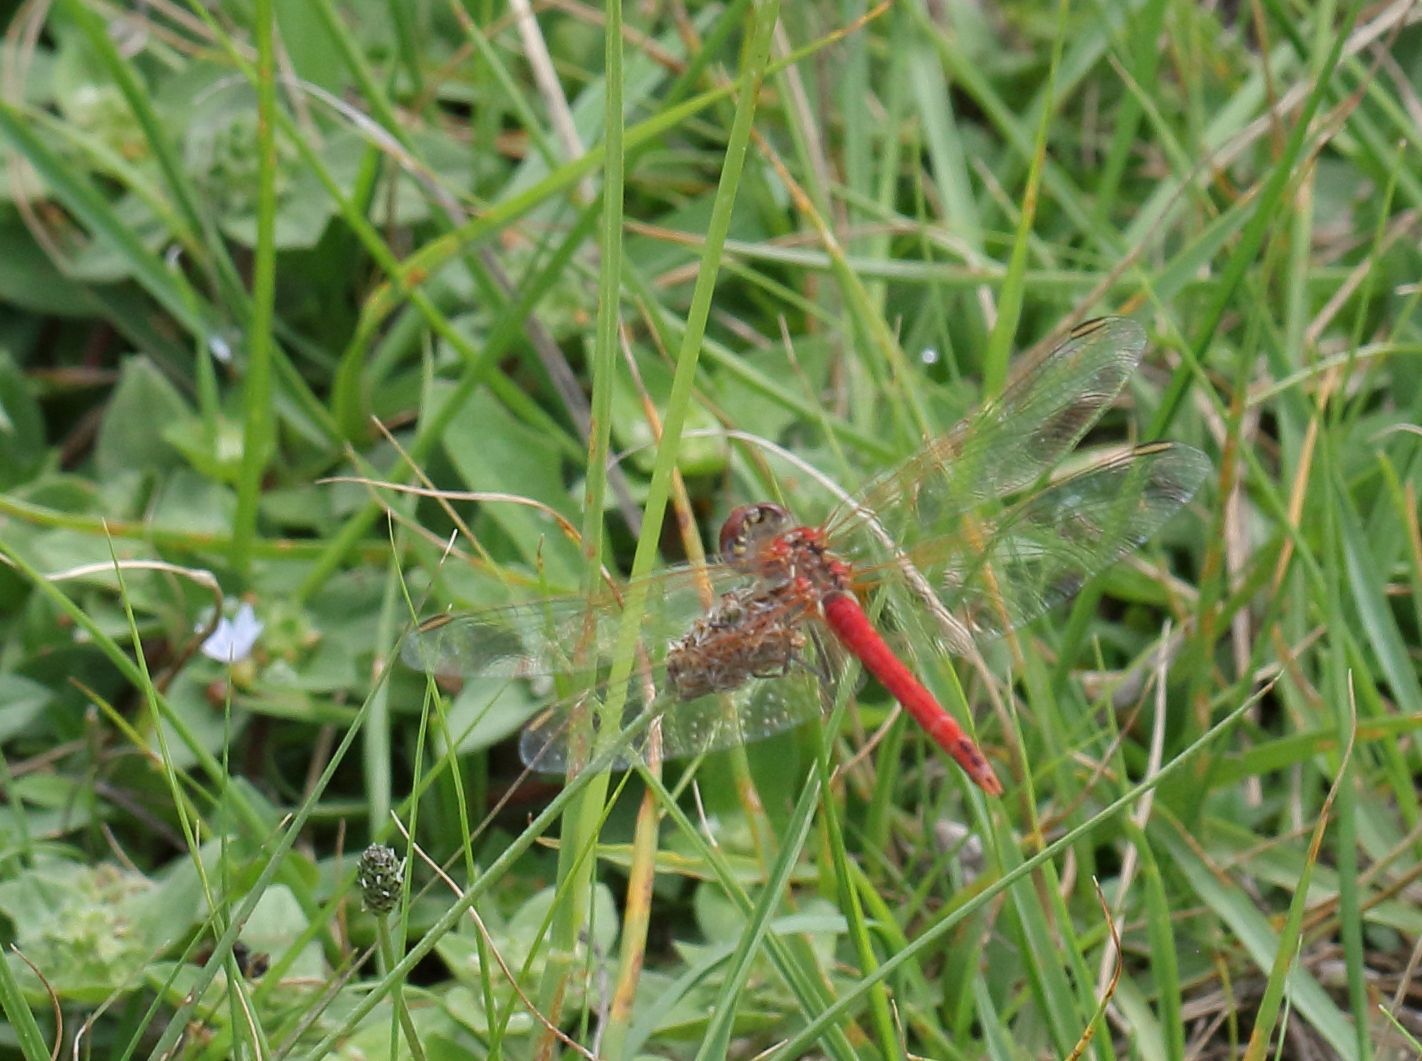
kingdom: Animalia
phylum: Arthropoda
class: Insecta
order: Odonata
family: Libellulidae
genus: Sympetrum
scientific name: Sympetrum fonscolombii
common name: Red-veined darter
